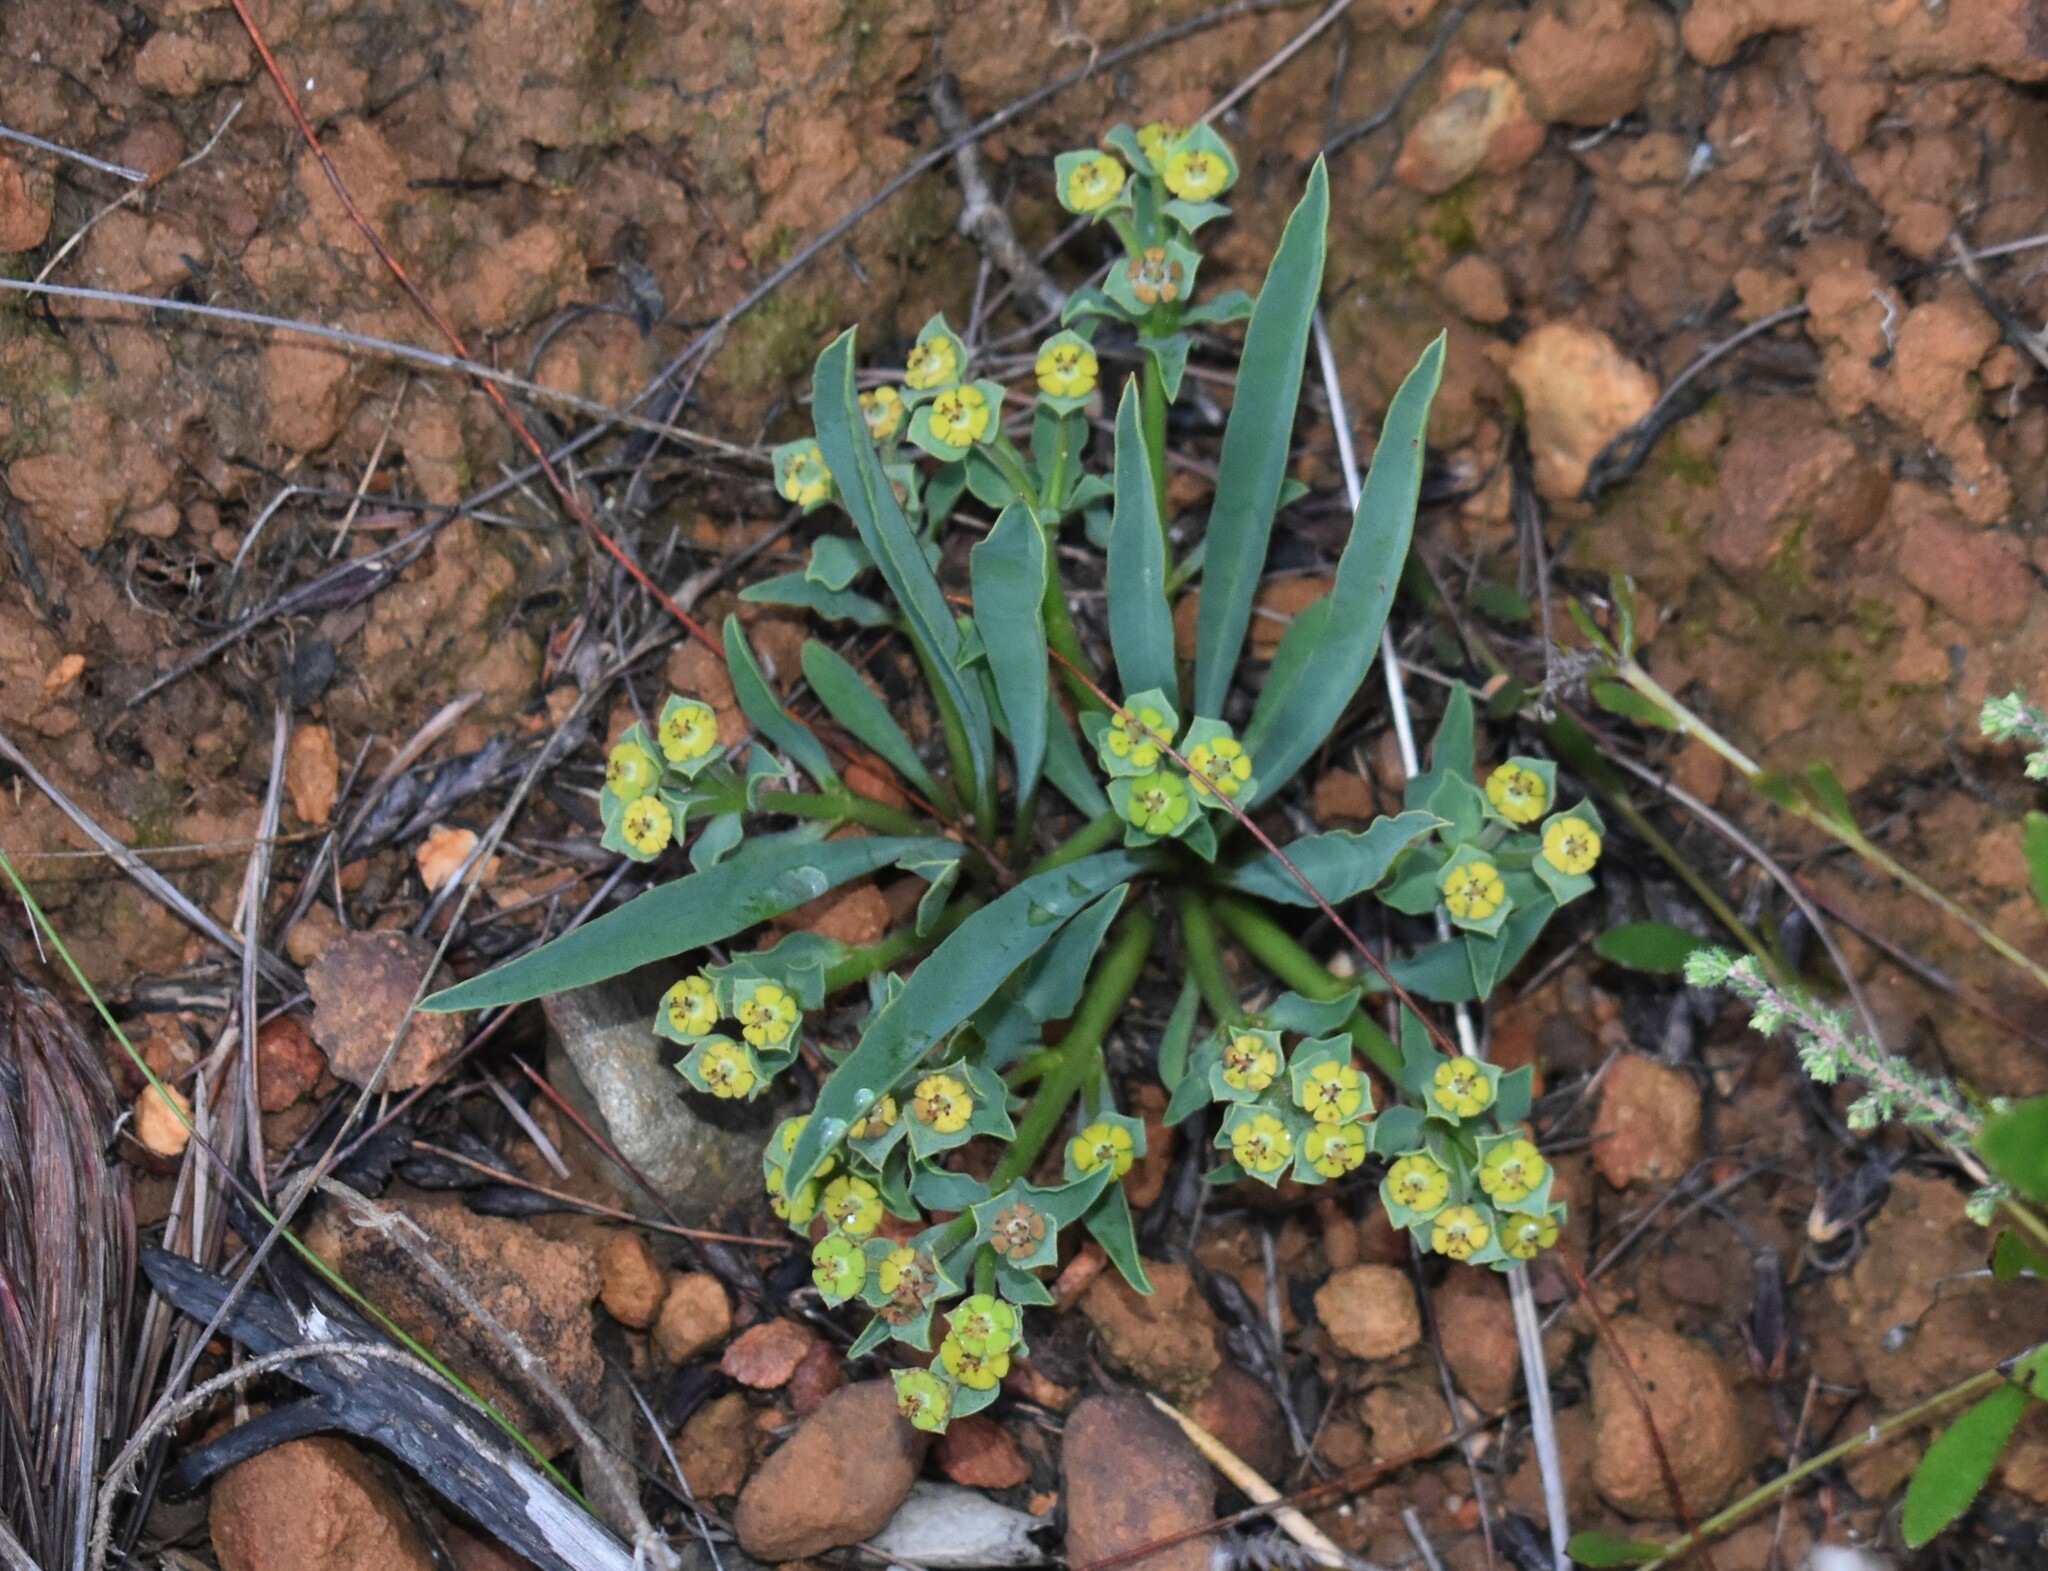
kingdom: Plantae
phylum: Tracheophyta
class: Magnoliopsida
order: Malpighiales
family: Euphorbiaceae
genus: Euphorbia
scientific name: Euphorbia tuberosa
